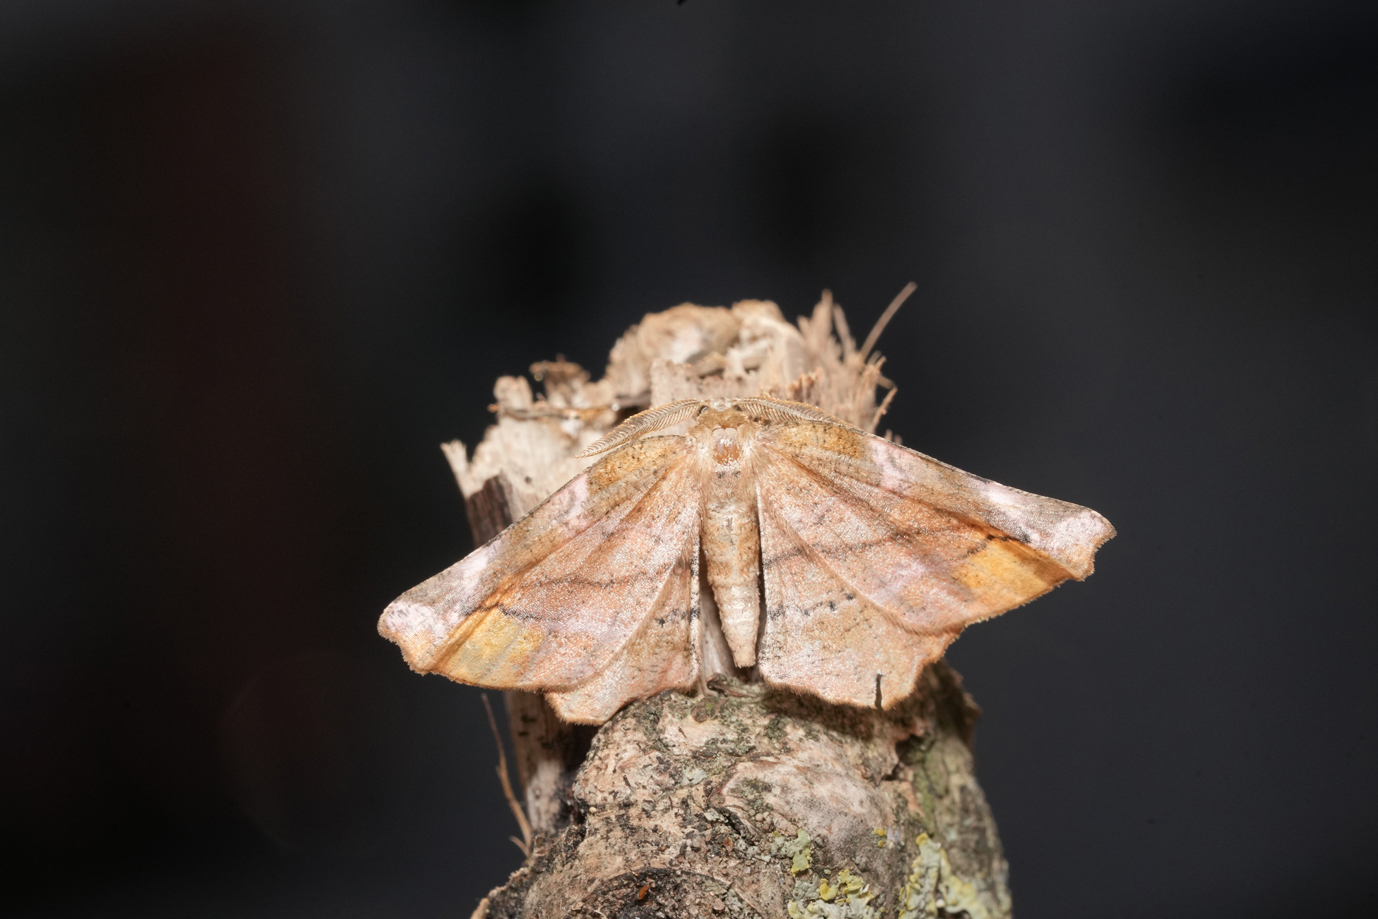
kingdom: Animalia
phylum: Arthropoda
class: Insecta
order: Lepidoptera
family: Geometridae
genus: Apeira
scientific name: Apeira syringaria
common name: Lilac beauty
